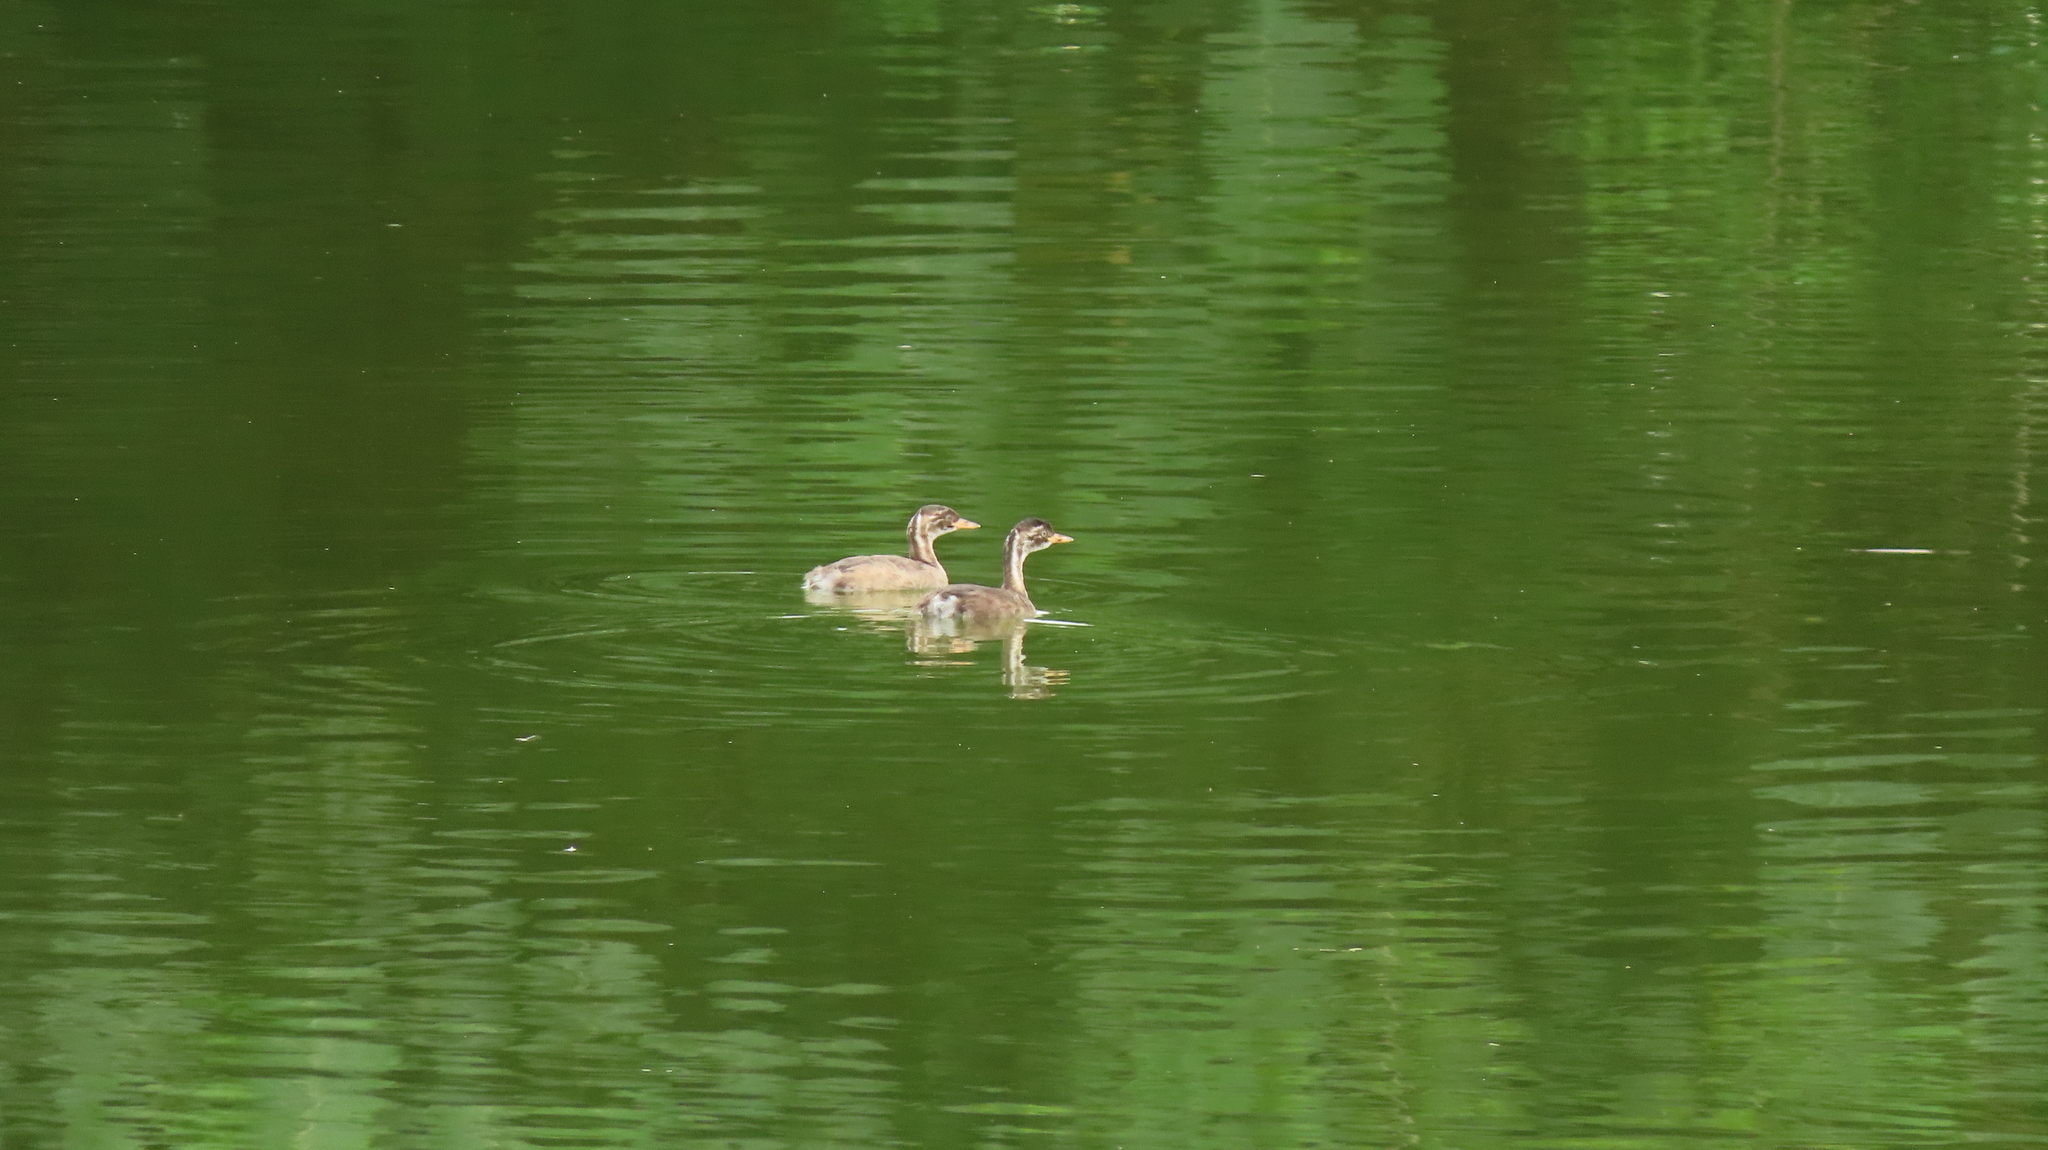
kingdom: Animalia
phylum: Chordata
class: Aves
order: Podicipediformes
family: Podicipedidae
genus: Tachybaptus
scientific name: Tachybaptus ruficollis
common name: Little grebe
